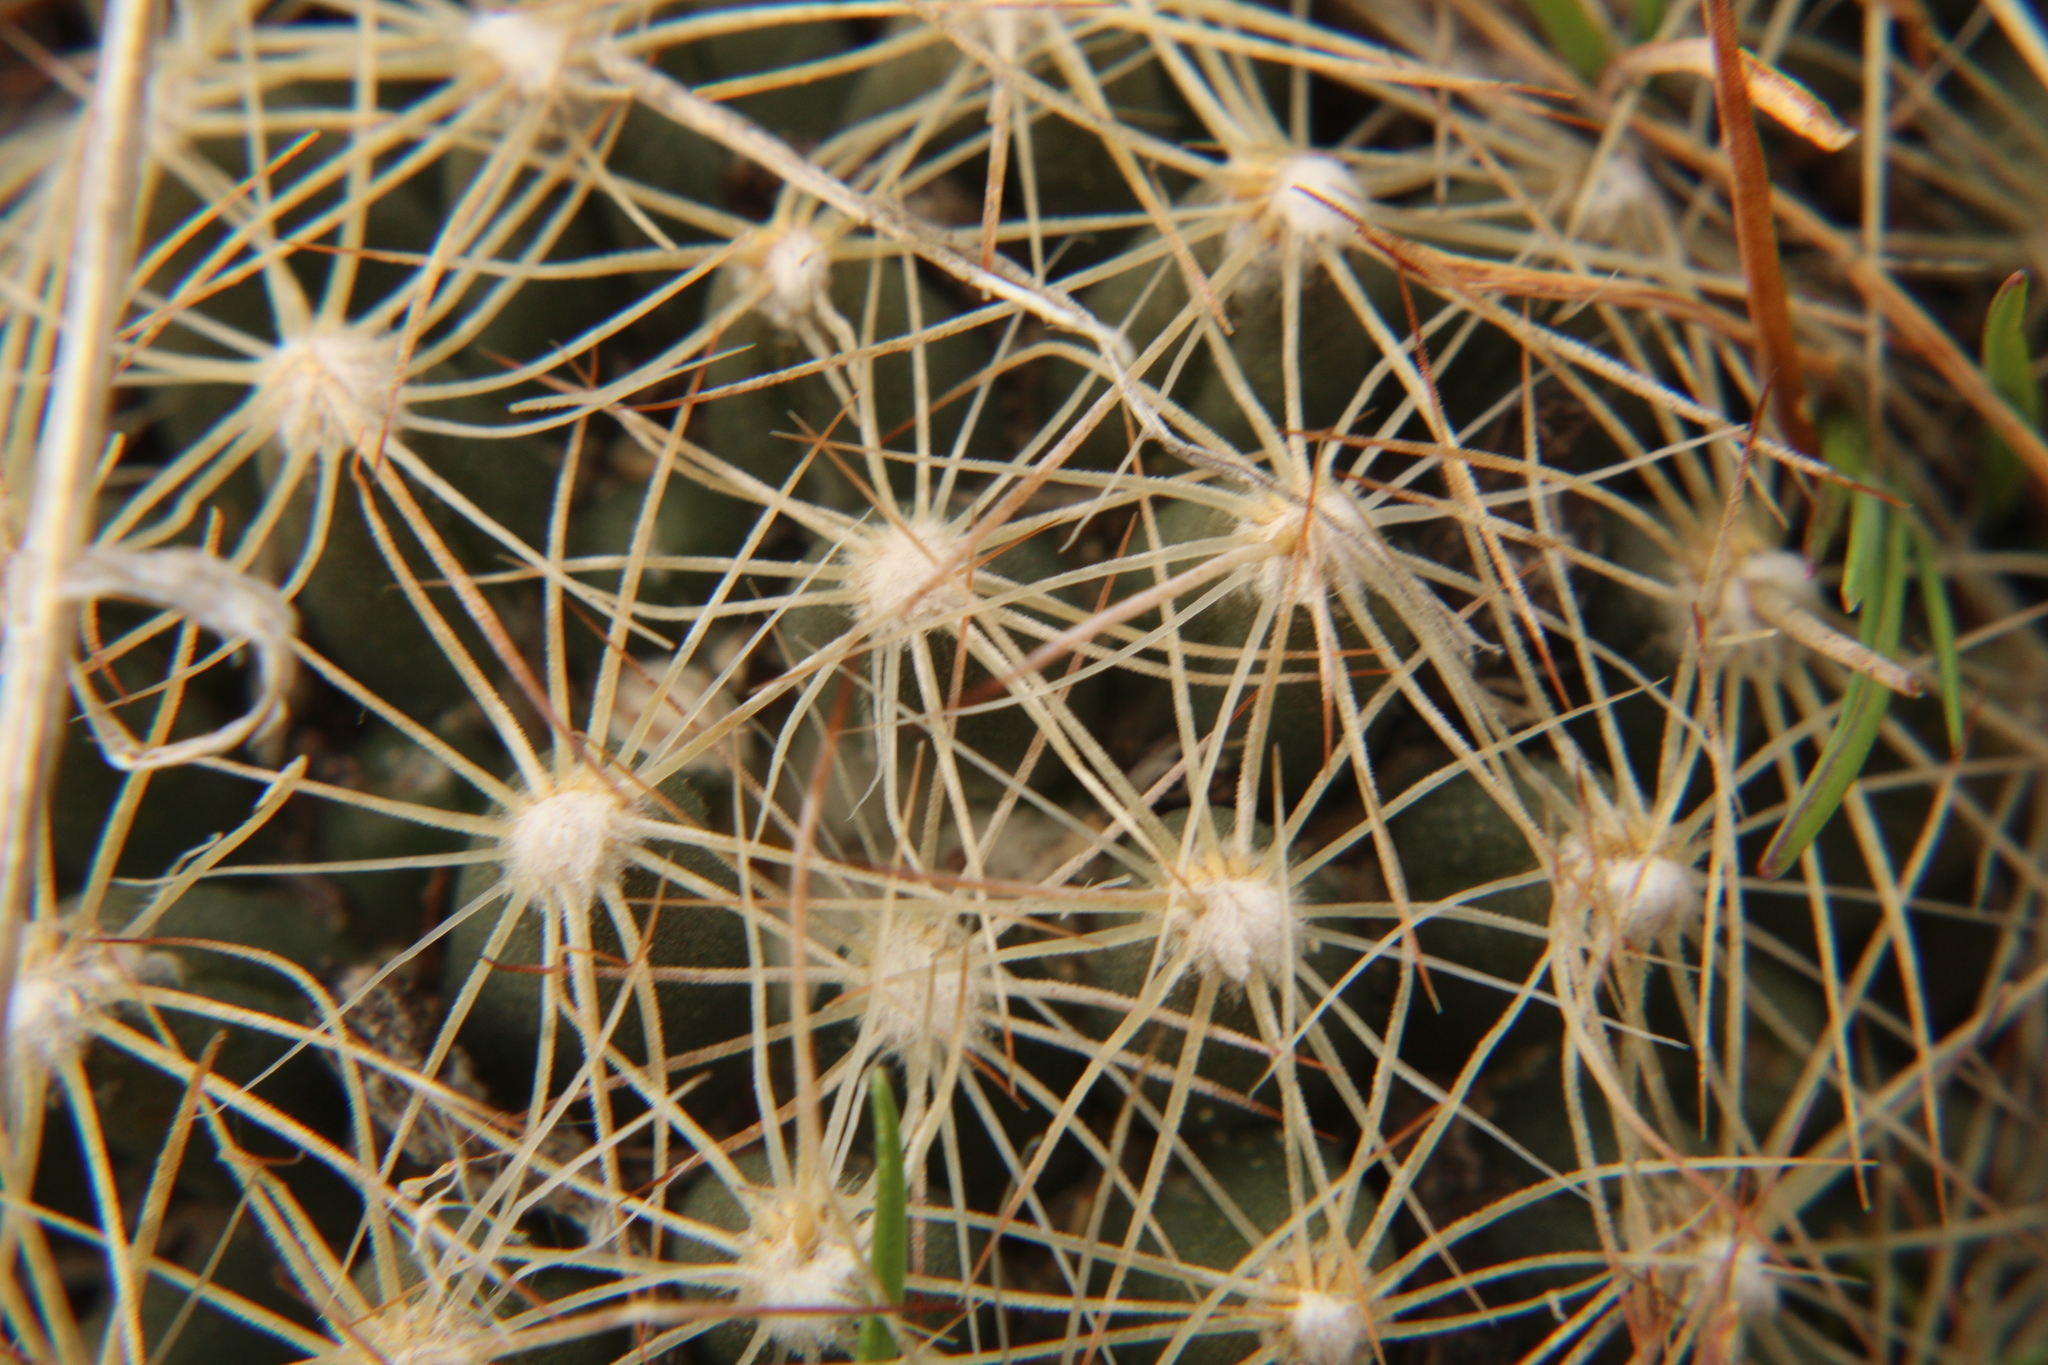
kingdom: Plantae
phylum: Tracheophyta
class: Magnoliopsida
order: Caryophyllales
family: Cactaceae
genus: Pelecyphora
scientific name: Pelecyphora missouriensis
